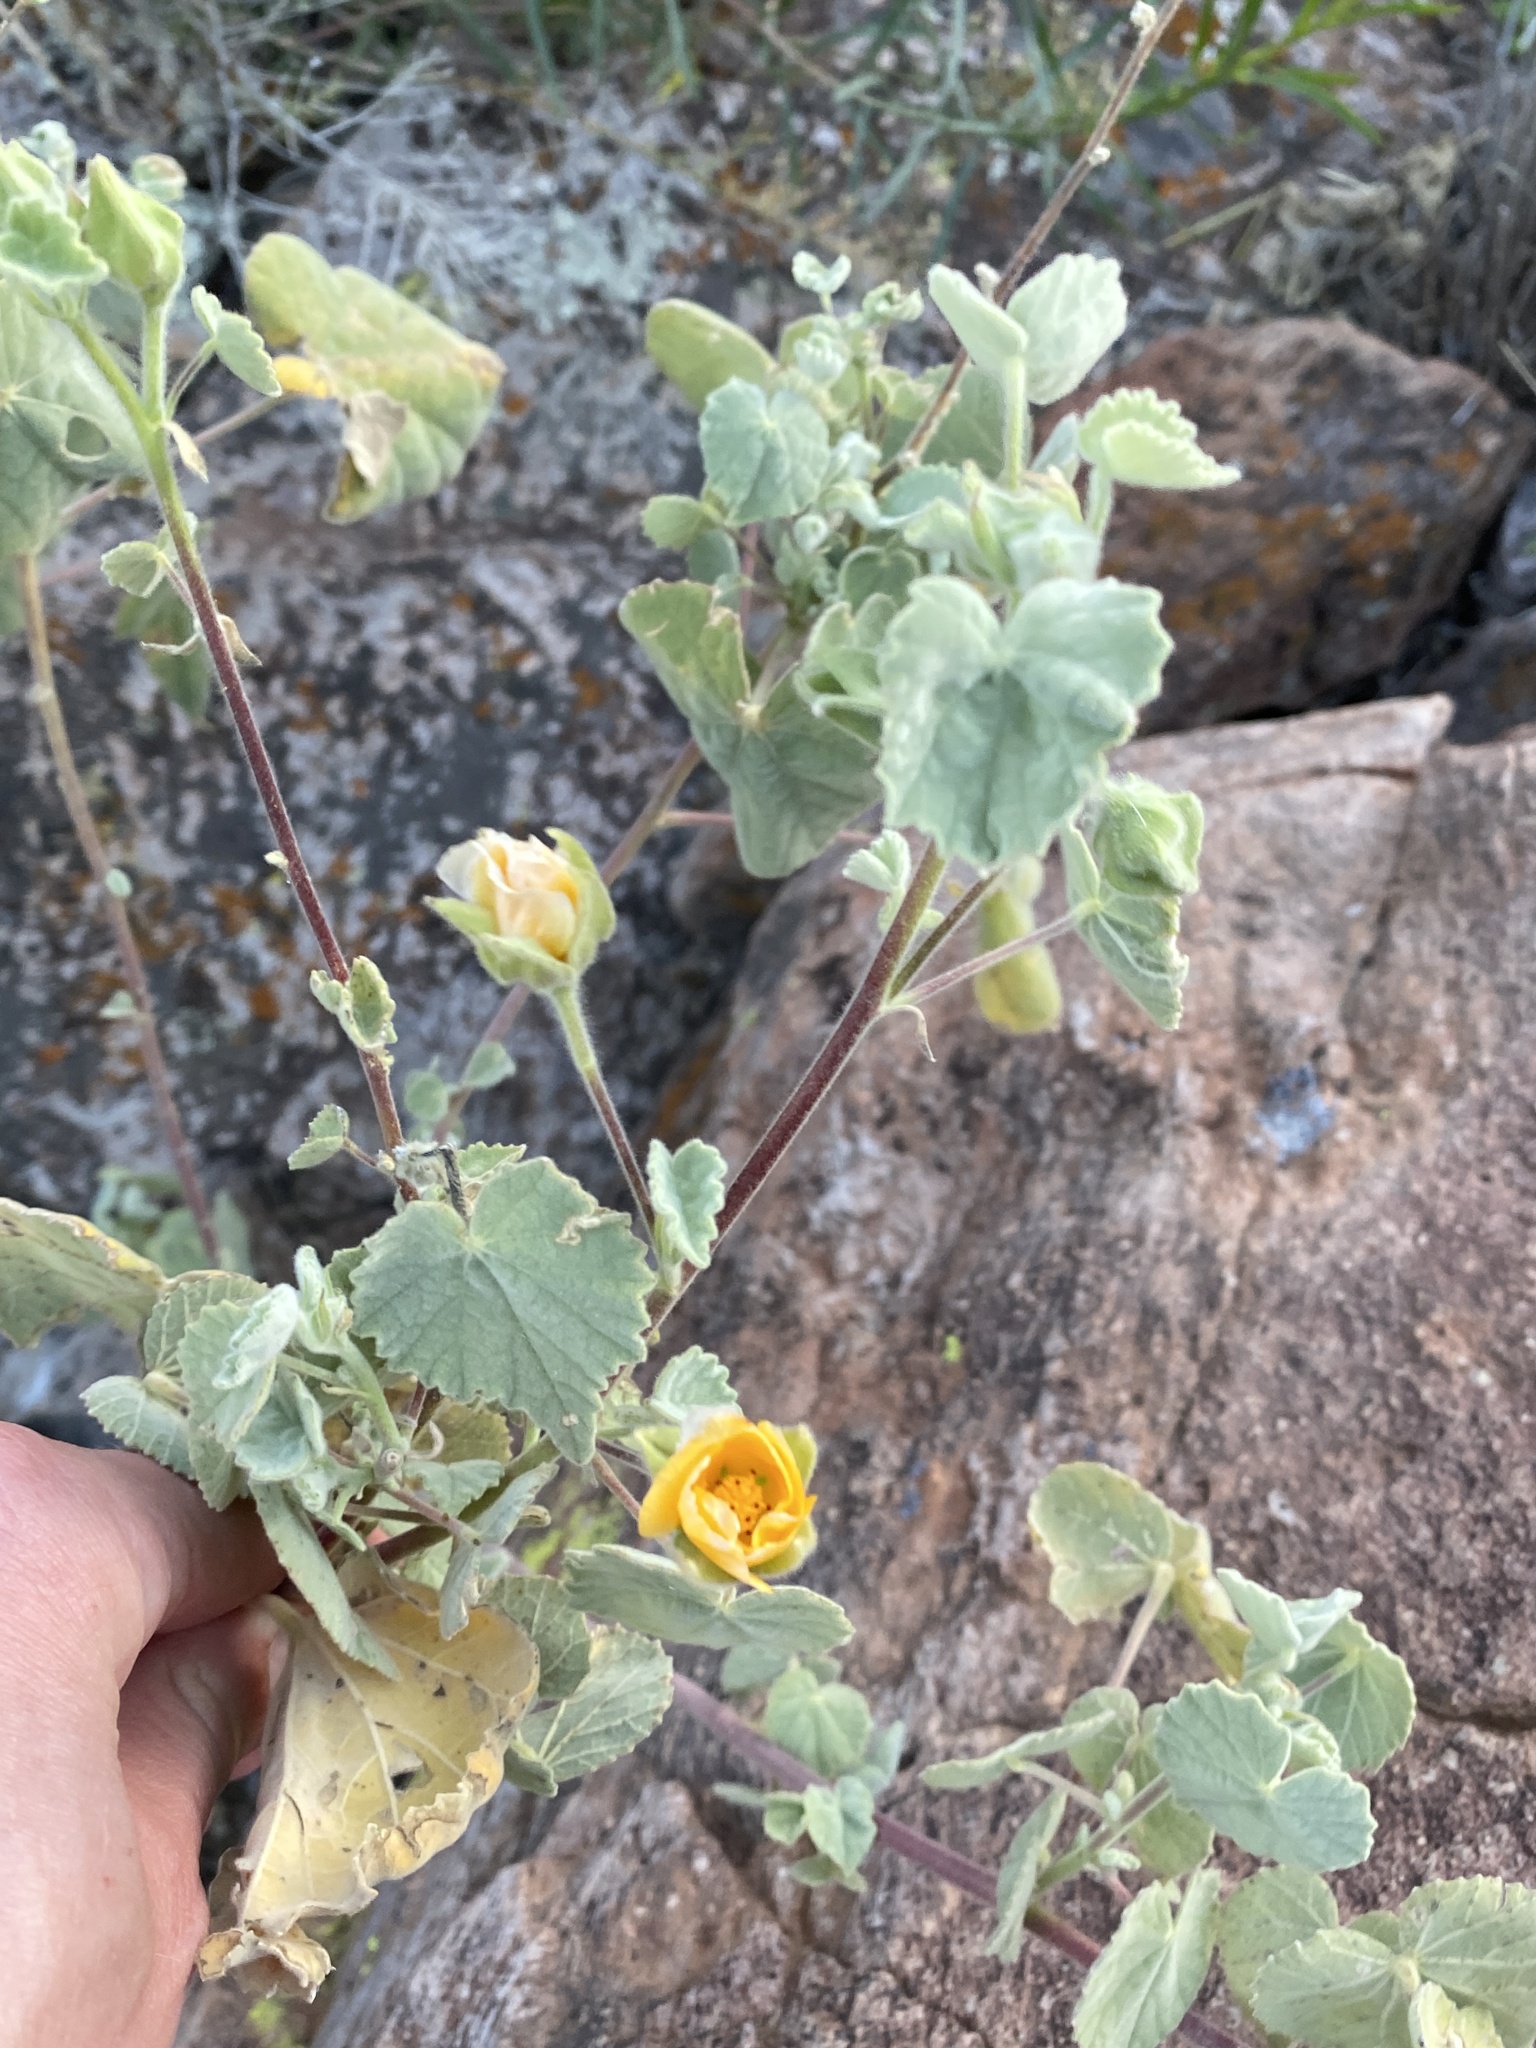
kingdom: Plantae
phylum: Tracheophyta
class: Magnoliopsida
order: Malvales
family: Malvaceae
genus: Abutilon
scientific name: Abutilon palmeri
